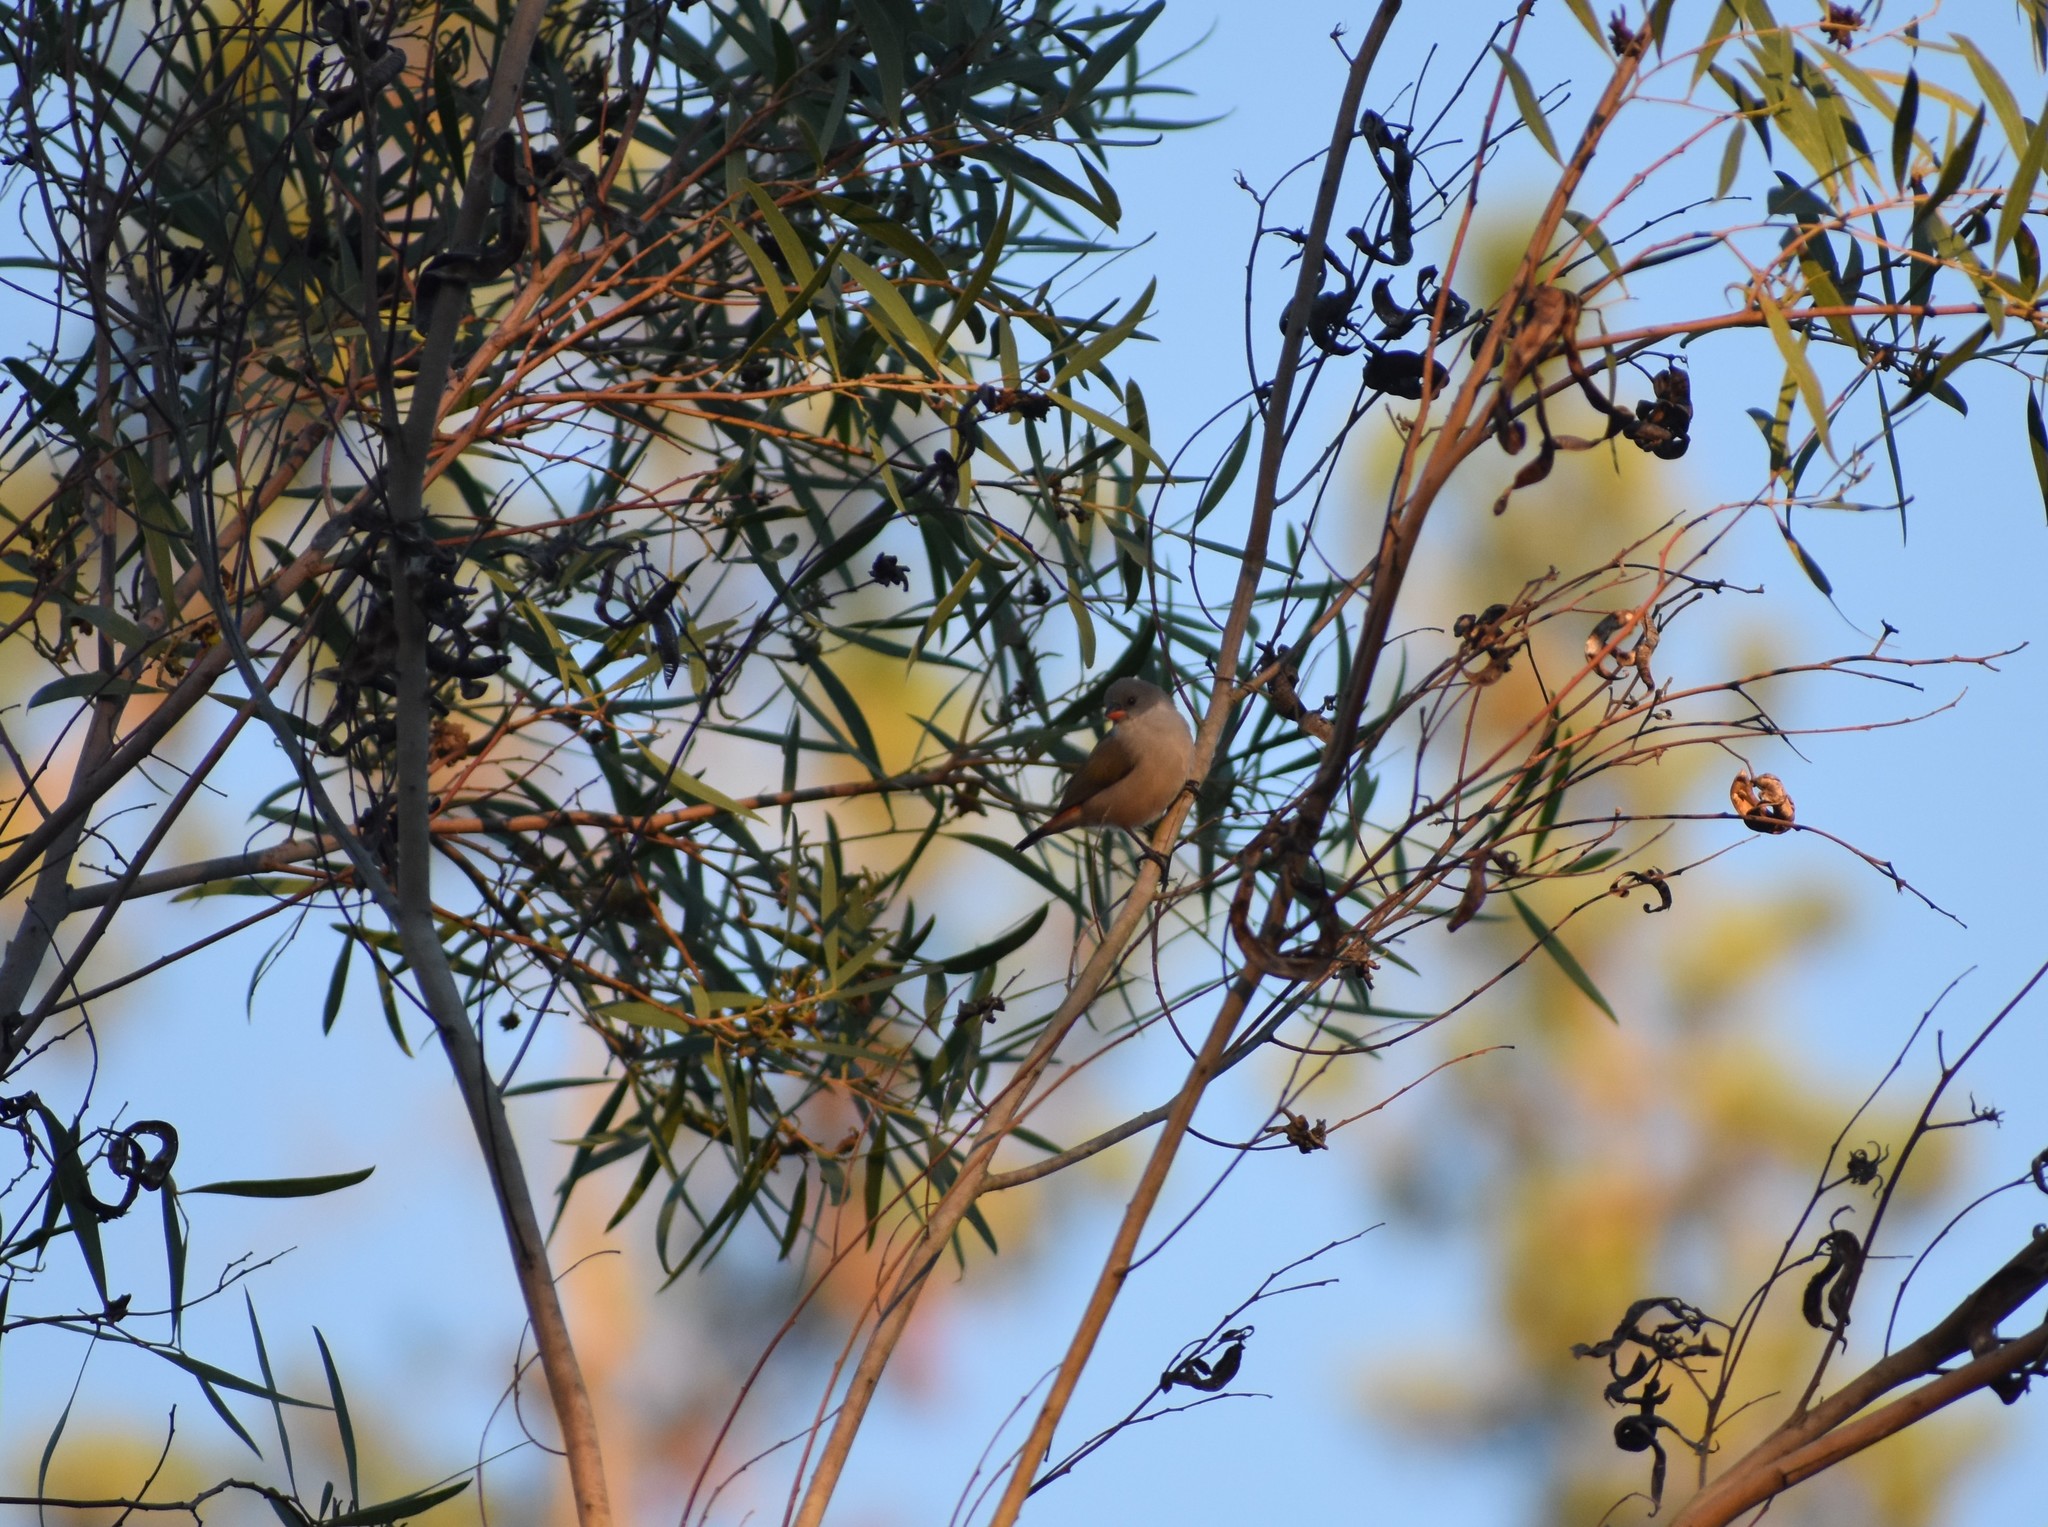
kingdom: Animalia
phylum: Chordata
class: Aves
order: Passeriformes
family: Estrildidae
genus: Coccopygia
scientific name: Coccopygia melanotis
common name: Swee waxbill
